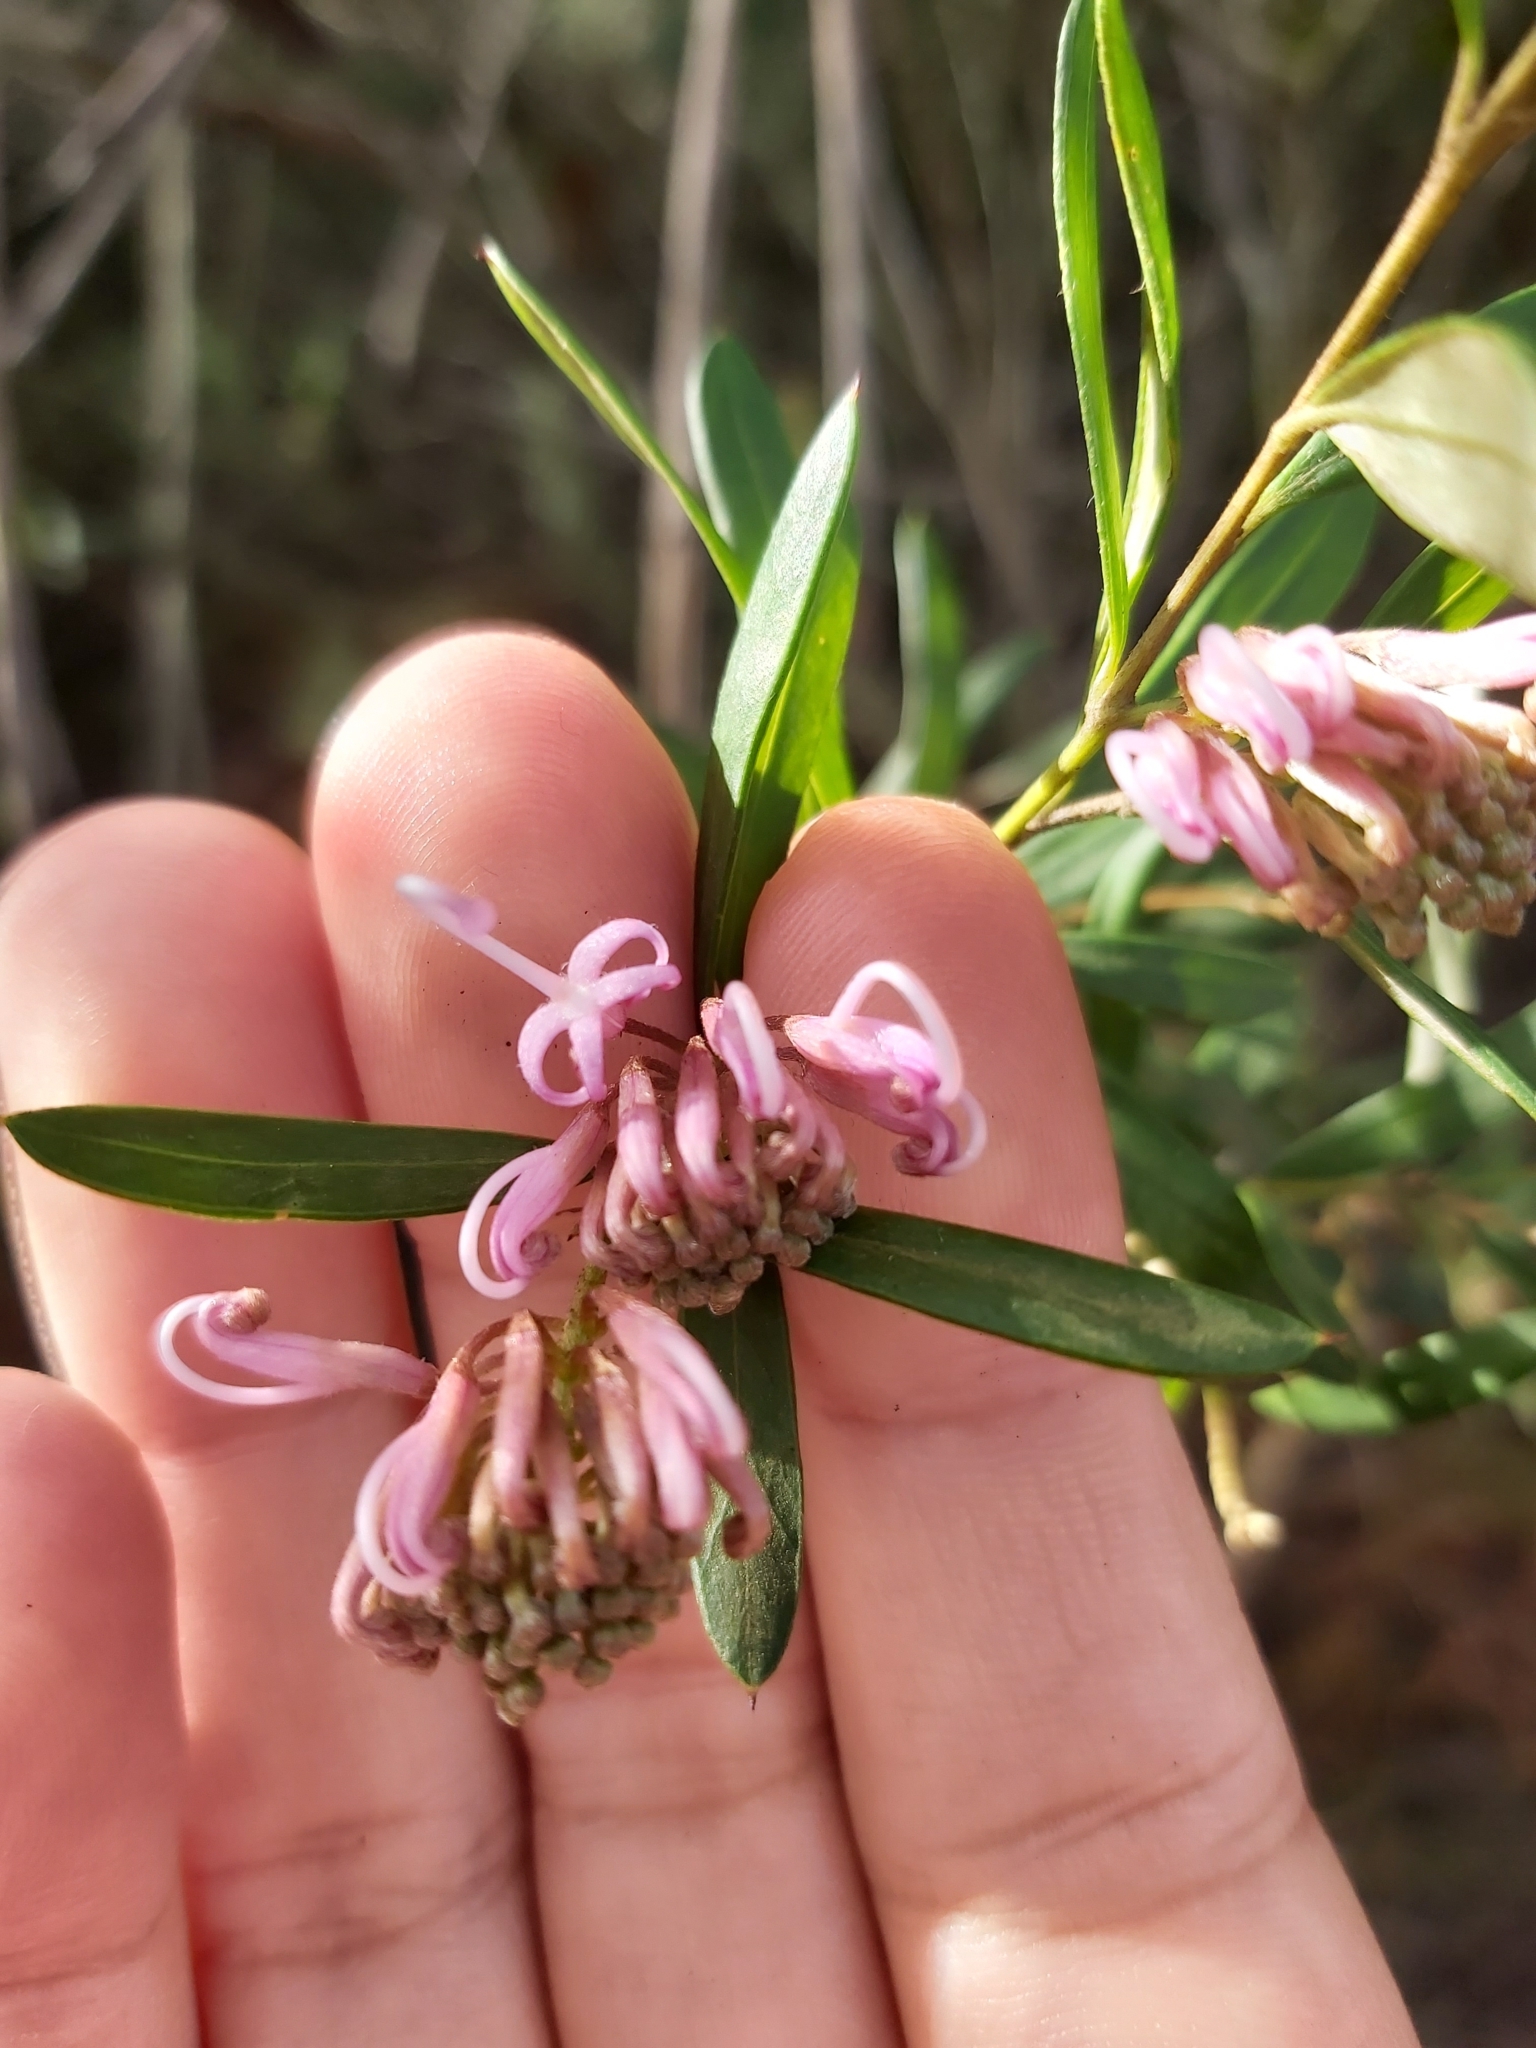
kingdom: Plantae
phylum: Tracheophyta
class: Magnoliopsida
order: Proteales
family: Proteaceae
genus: Grevillea
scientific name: Grevillea sericea
